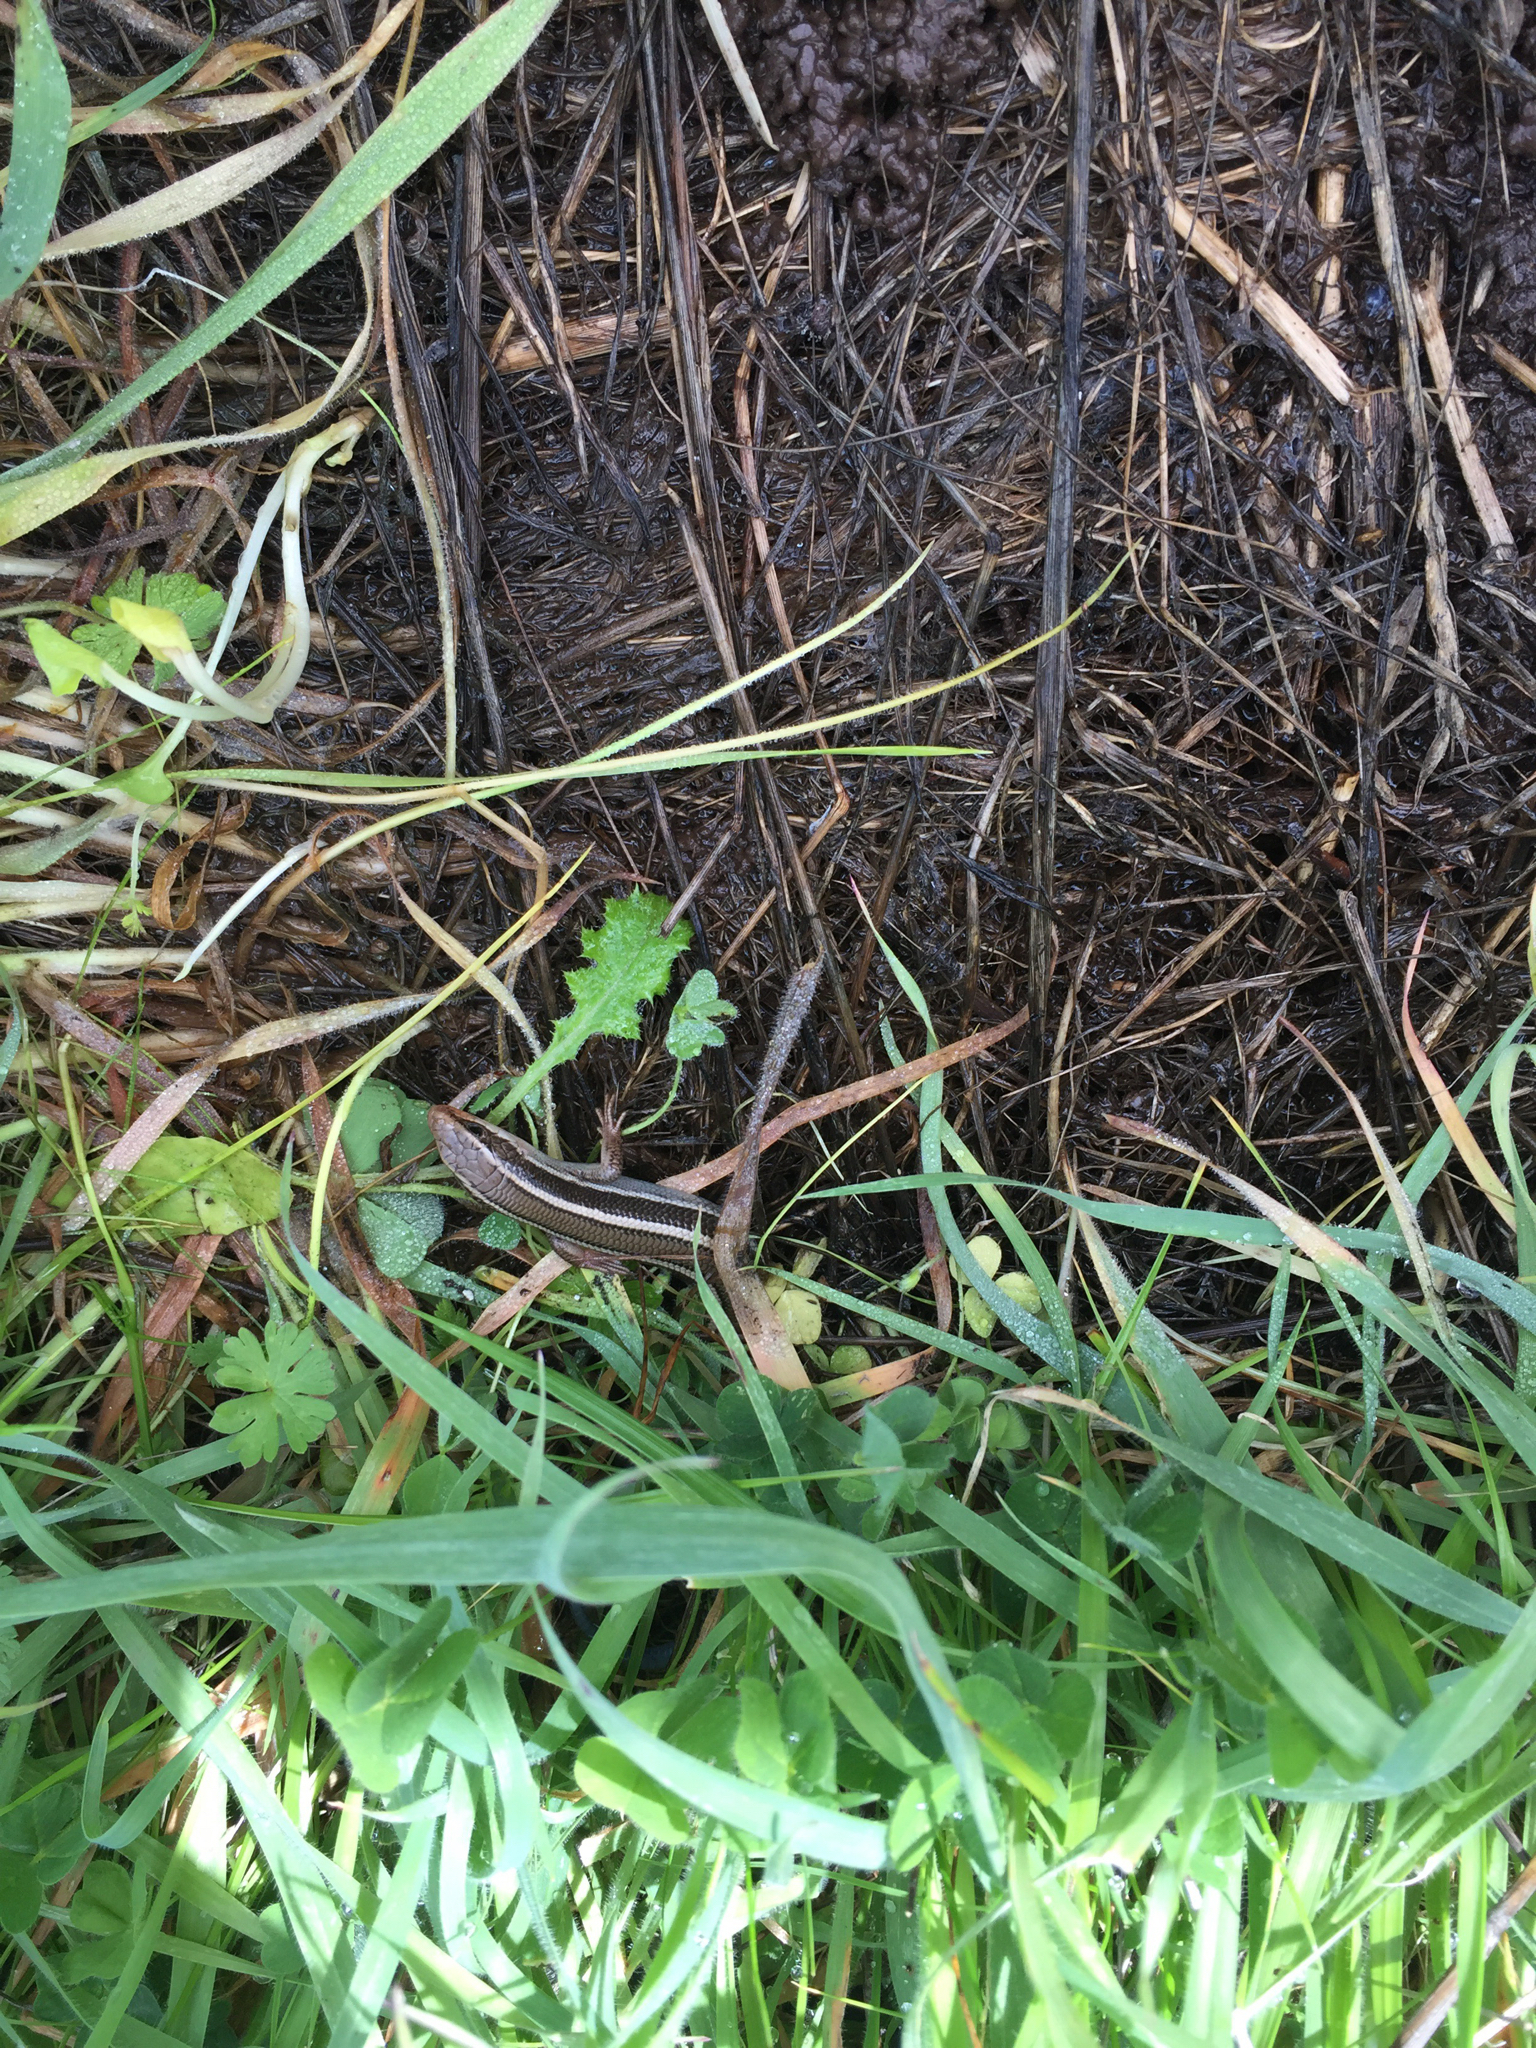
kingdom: Animalia
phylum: Chordata
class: Squamata
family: Scincidae
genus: Plestiodon
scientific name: Plestiodon skiltonianus
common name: Coronado island skink [interparietalis]
